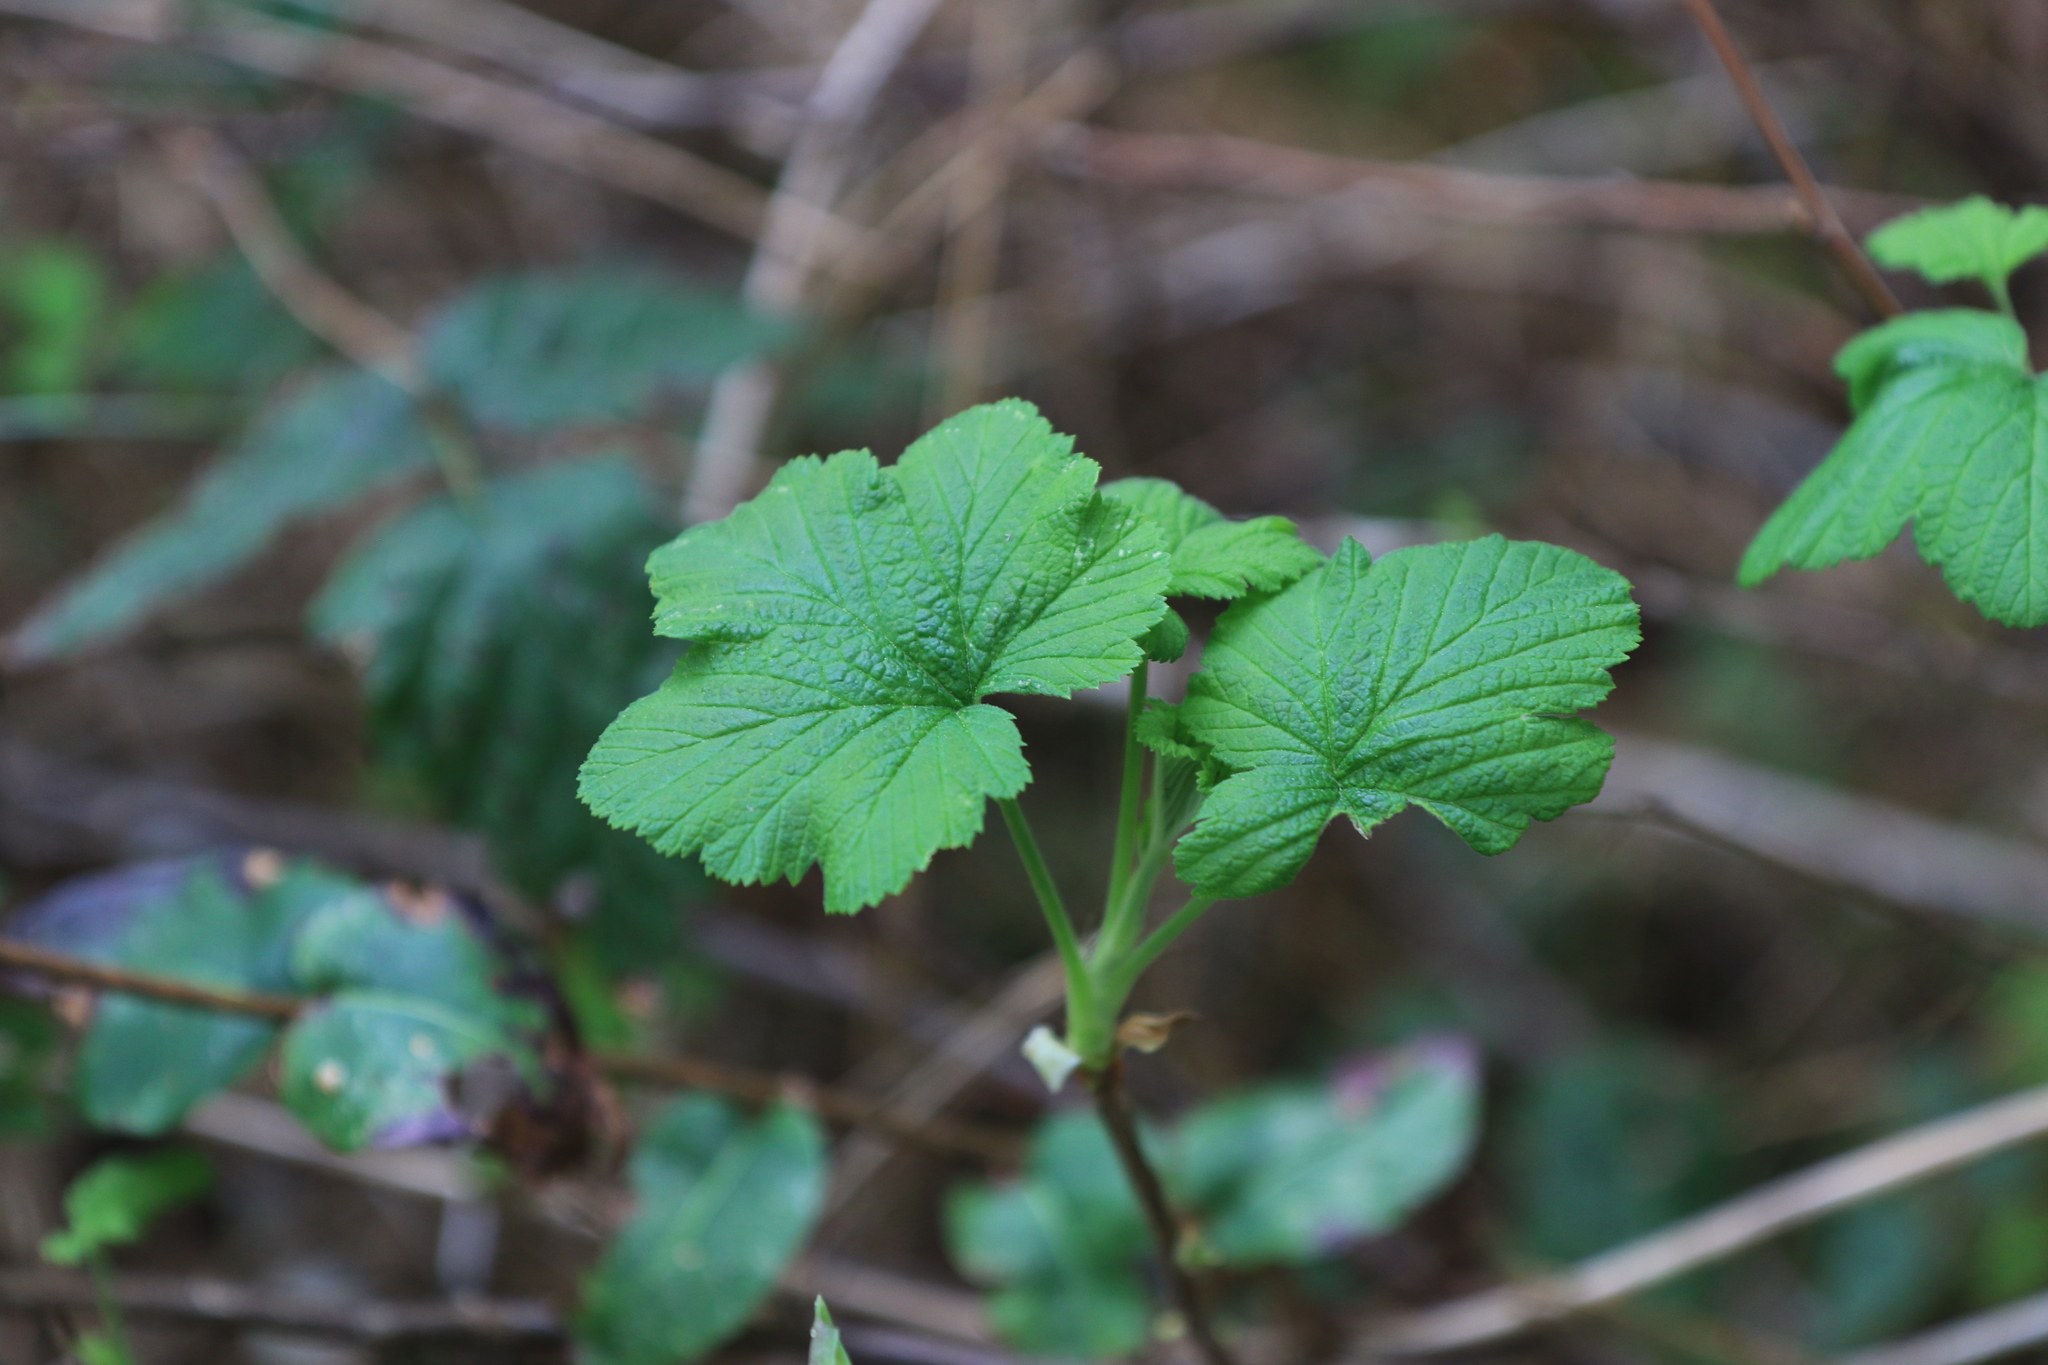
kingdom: Plantae
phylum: Tracheophyta
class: Magnoliopsida
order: Saxifragales
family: Grossulariaceae
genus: Ribes
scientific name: Ribes sanguineum
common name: Flowering currant
